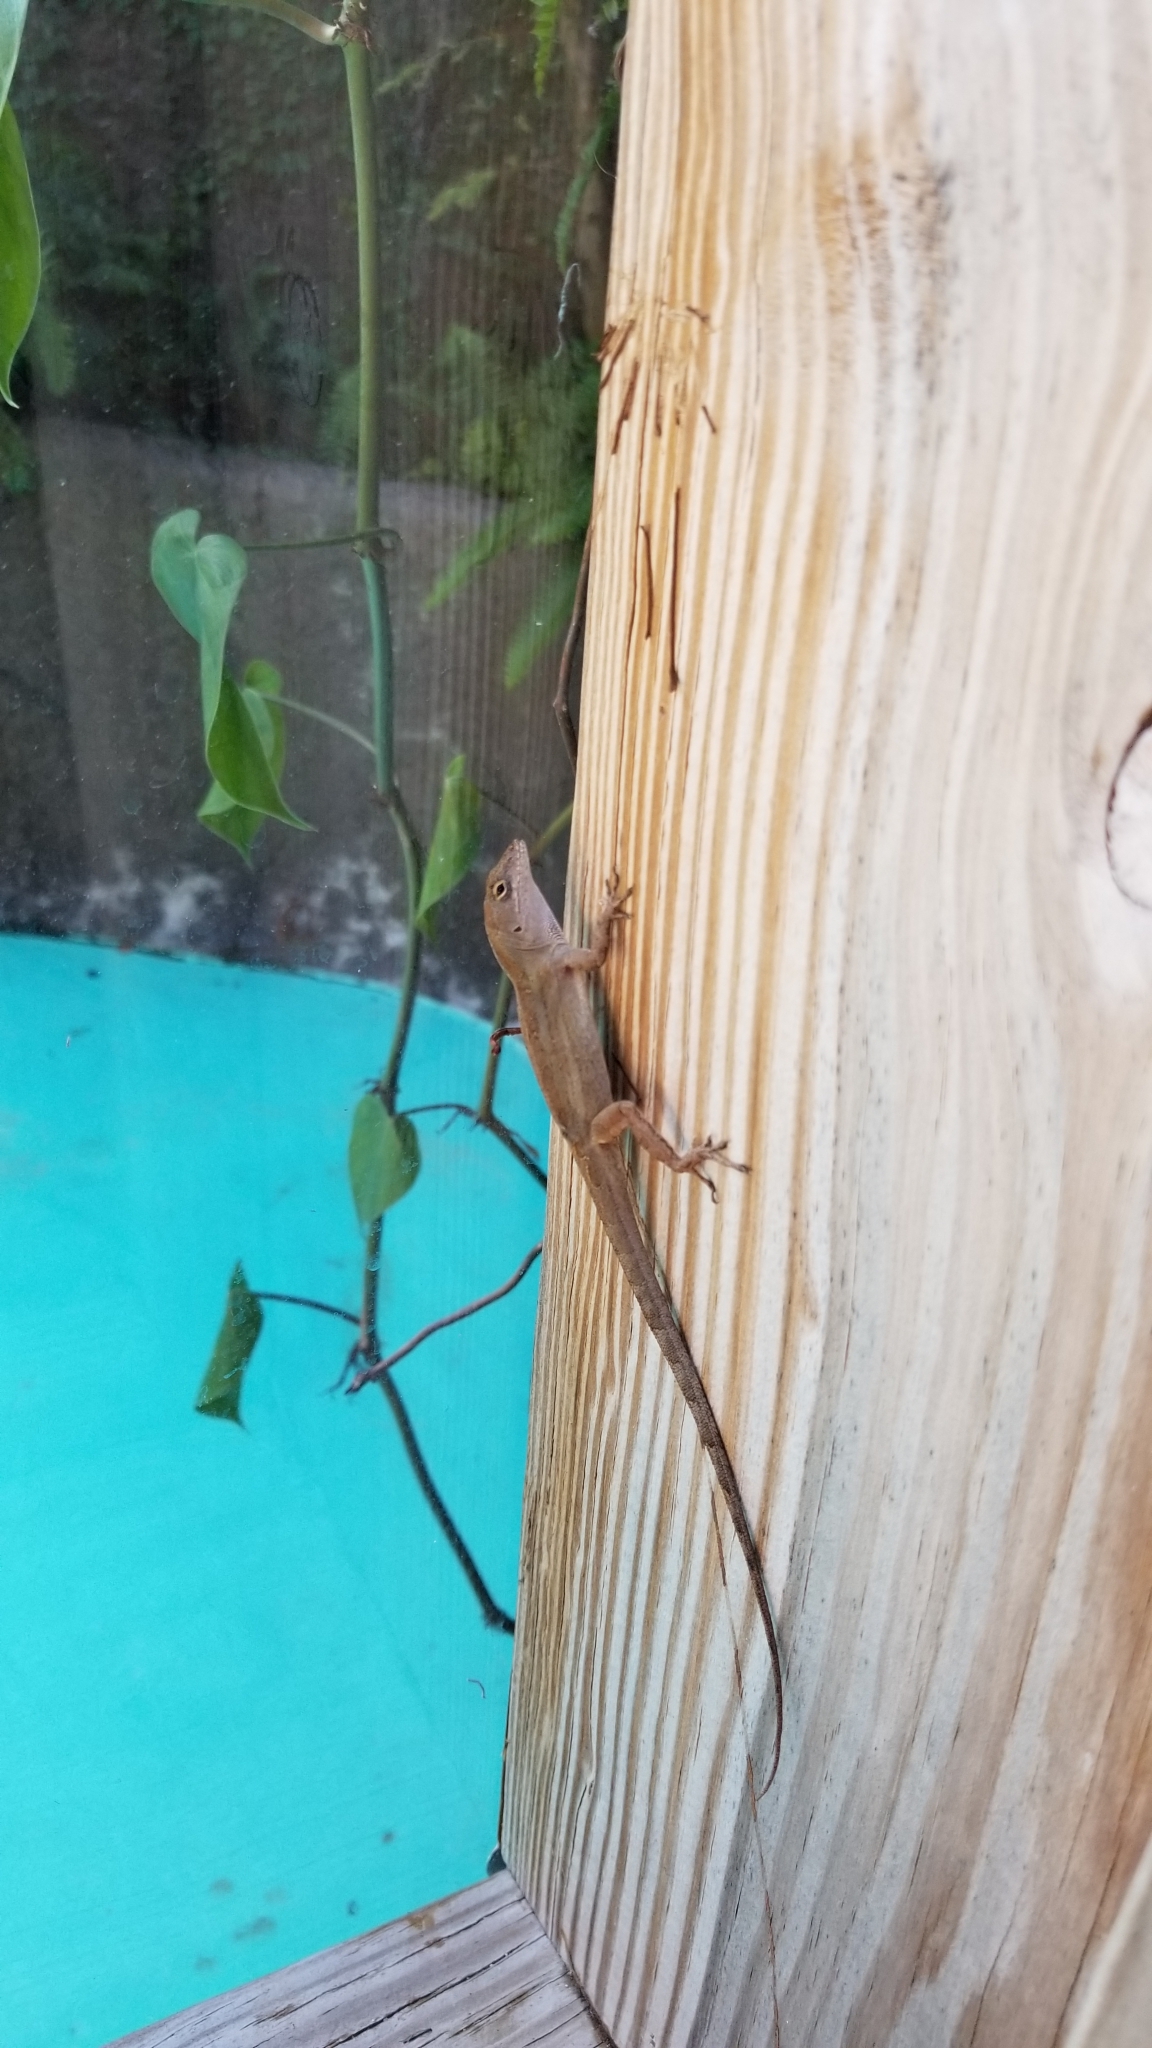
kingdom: Animalia
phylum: Chordata
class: Squamata
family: Dactyloidae
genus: Anolis
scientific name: Anolis sagrei
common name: Brown anole
